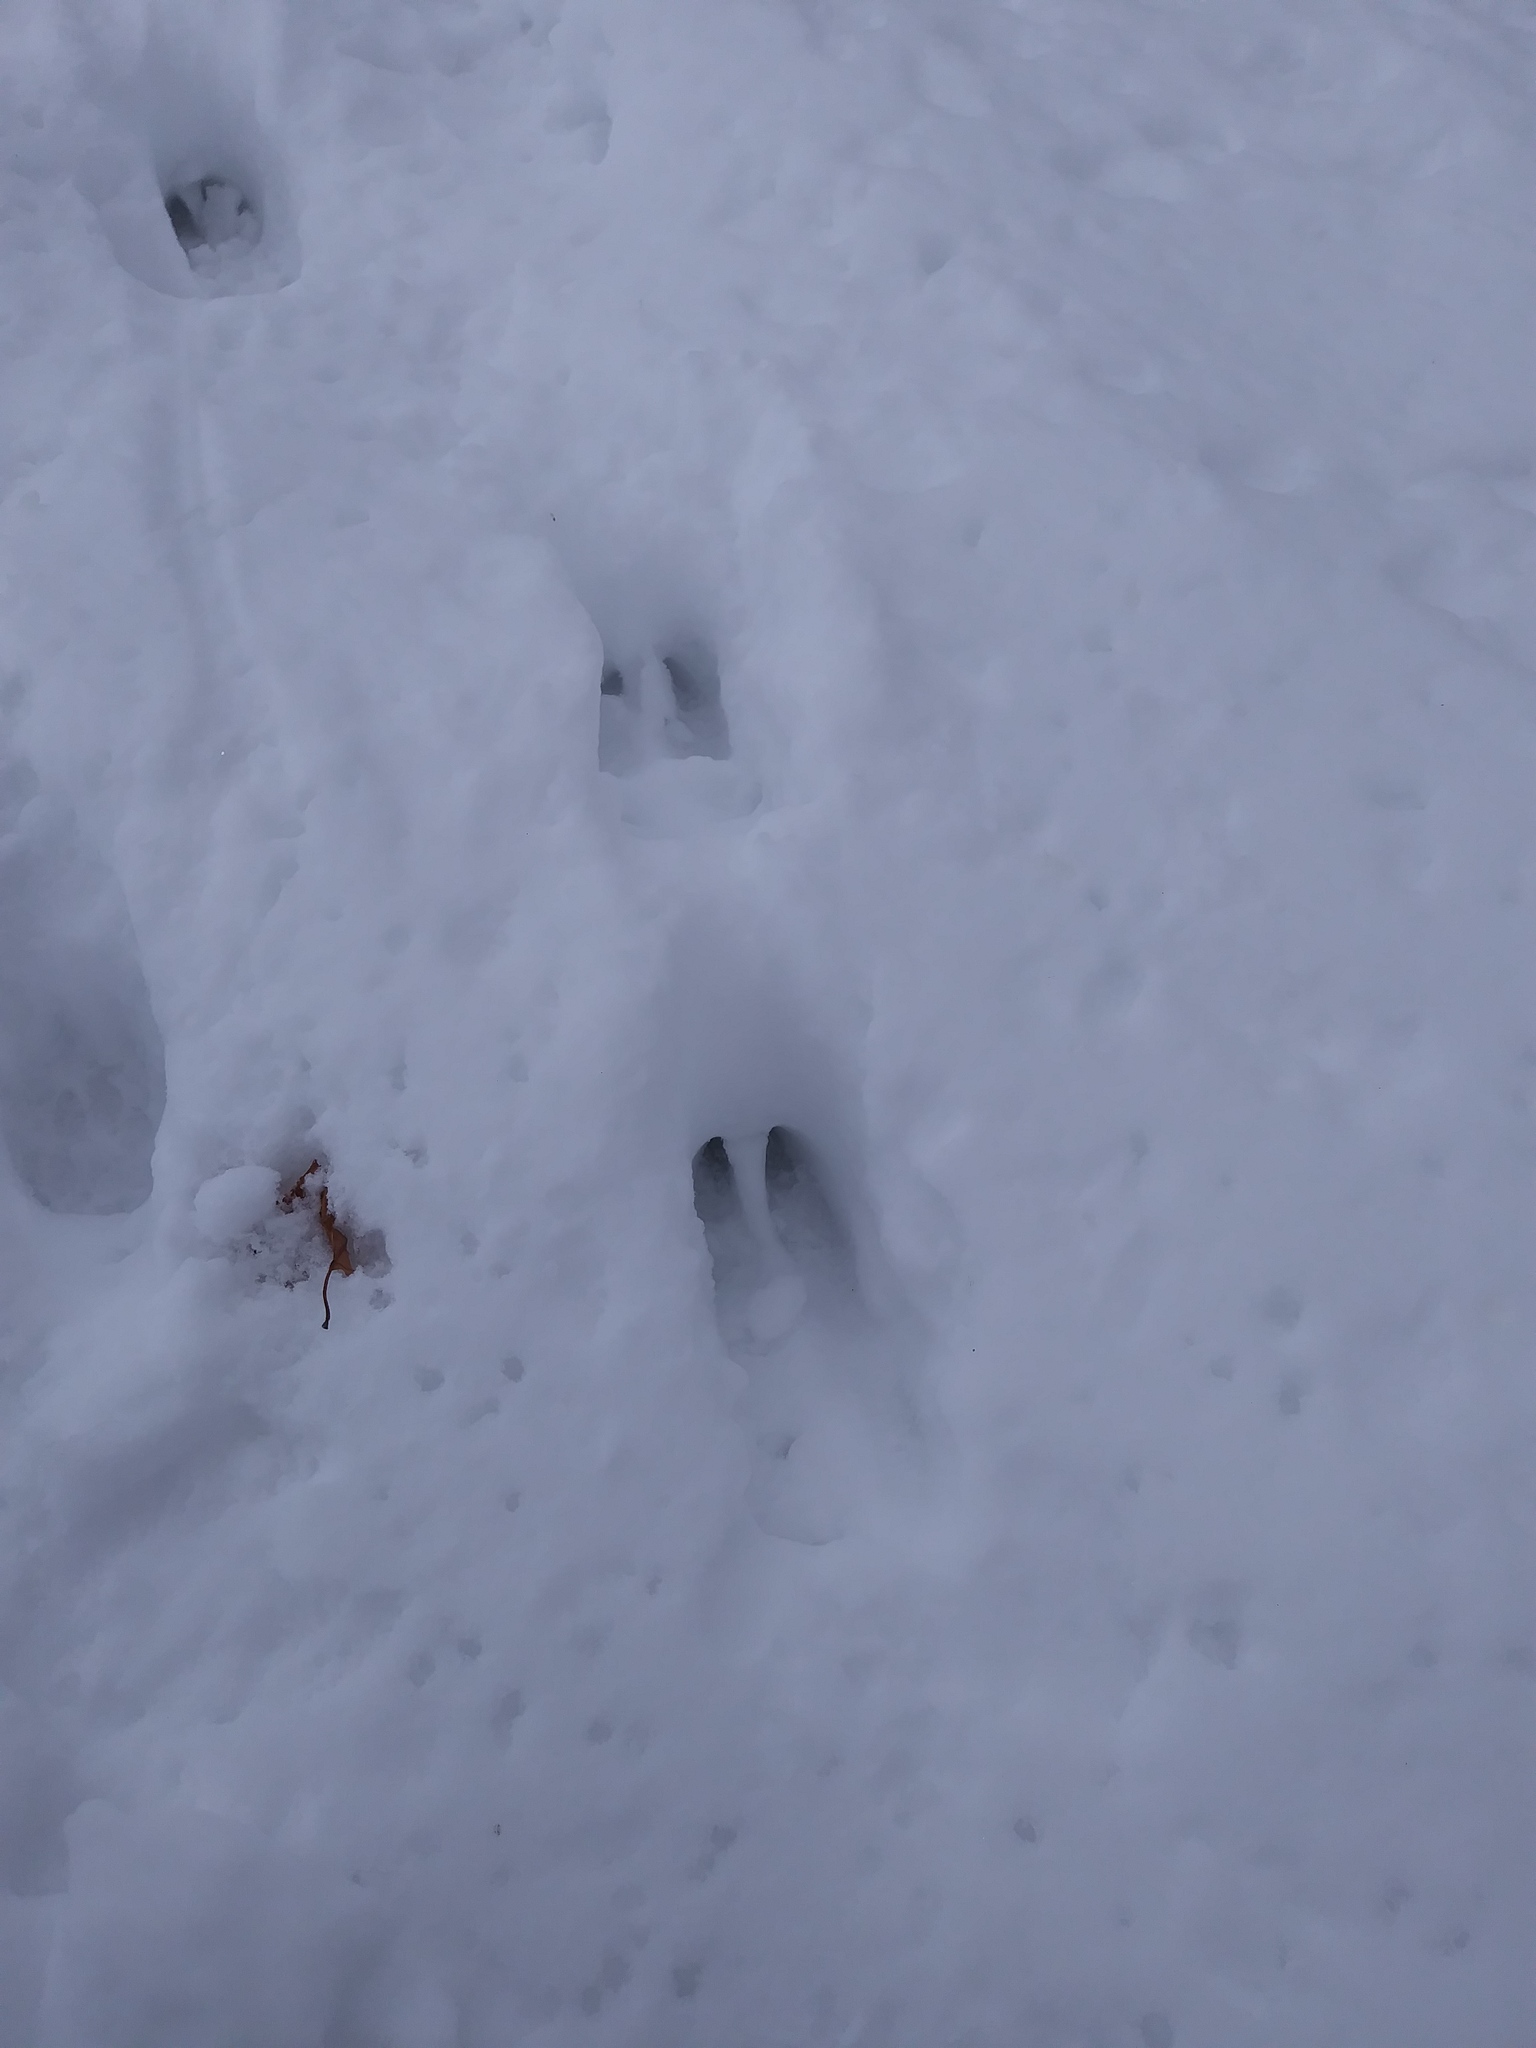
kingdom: Animalia
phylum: Chordata
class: Mammalia
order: Artiodactyla
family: Cervidae
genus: Odocoileus
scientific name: Odocoileus virginianus
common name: White-tailed deer
